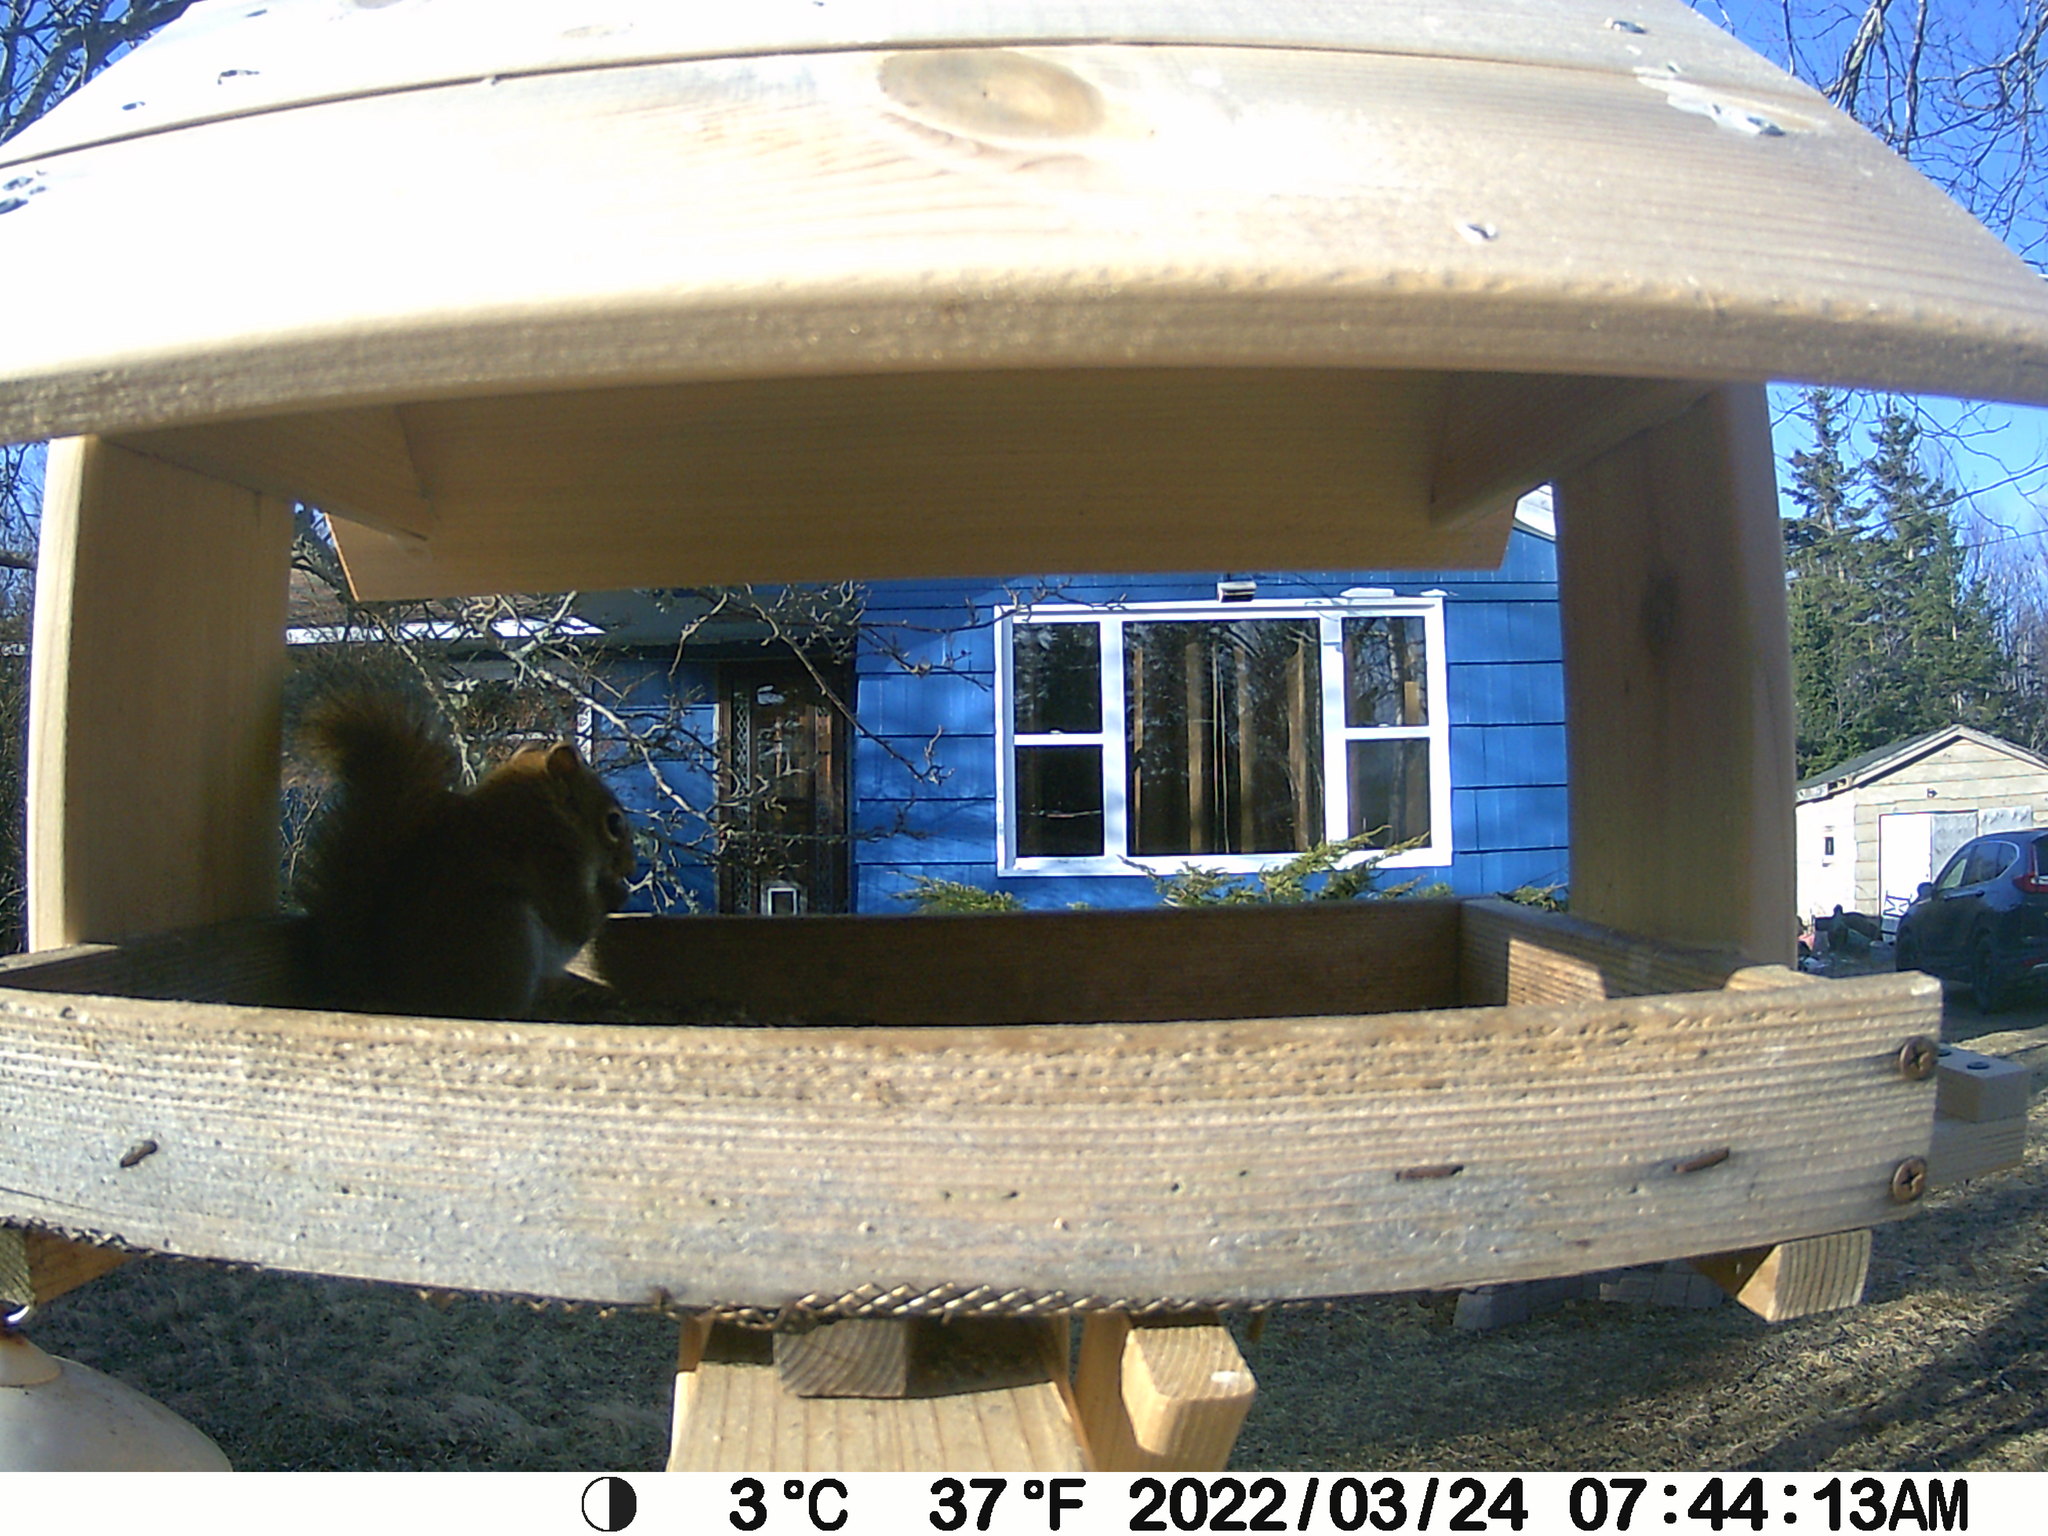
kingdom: Animalia
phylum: Chordata
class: Mammalia
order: Rodentia
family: Sciuridae
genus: Tamiasciurus
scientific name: Tamiasciurus hudsonicus
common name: Red squirrel
